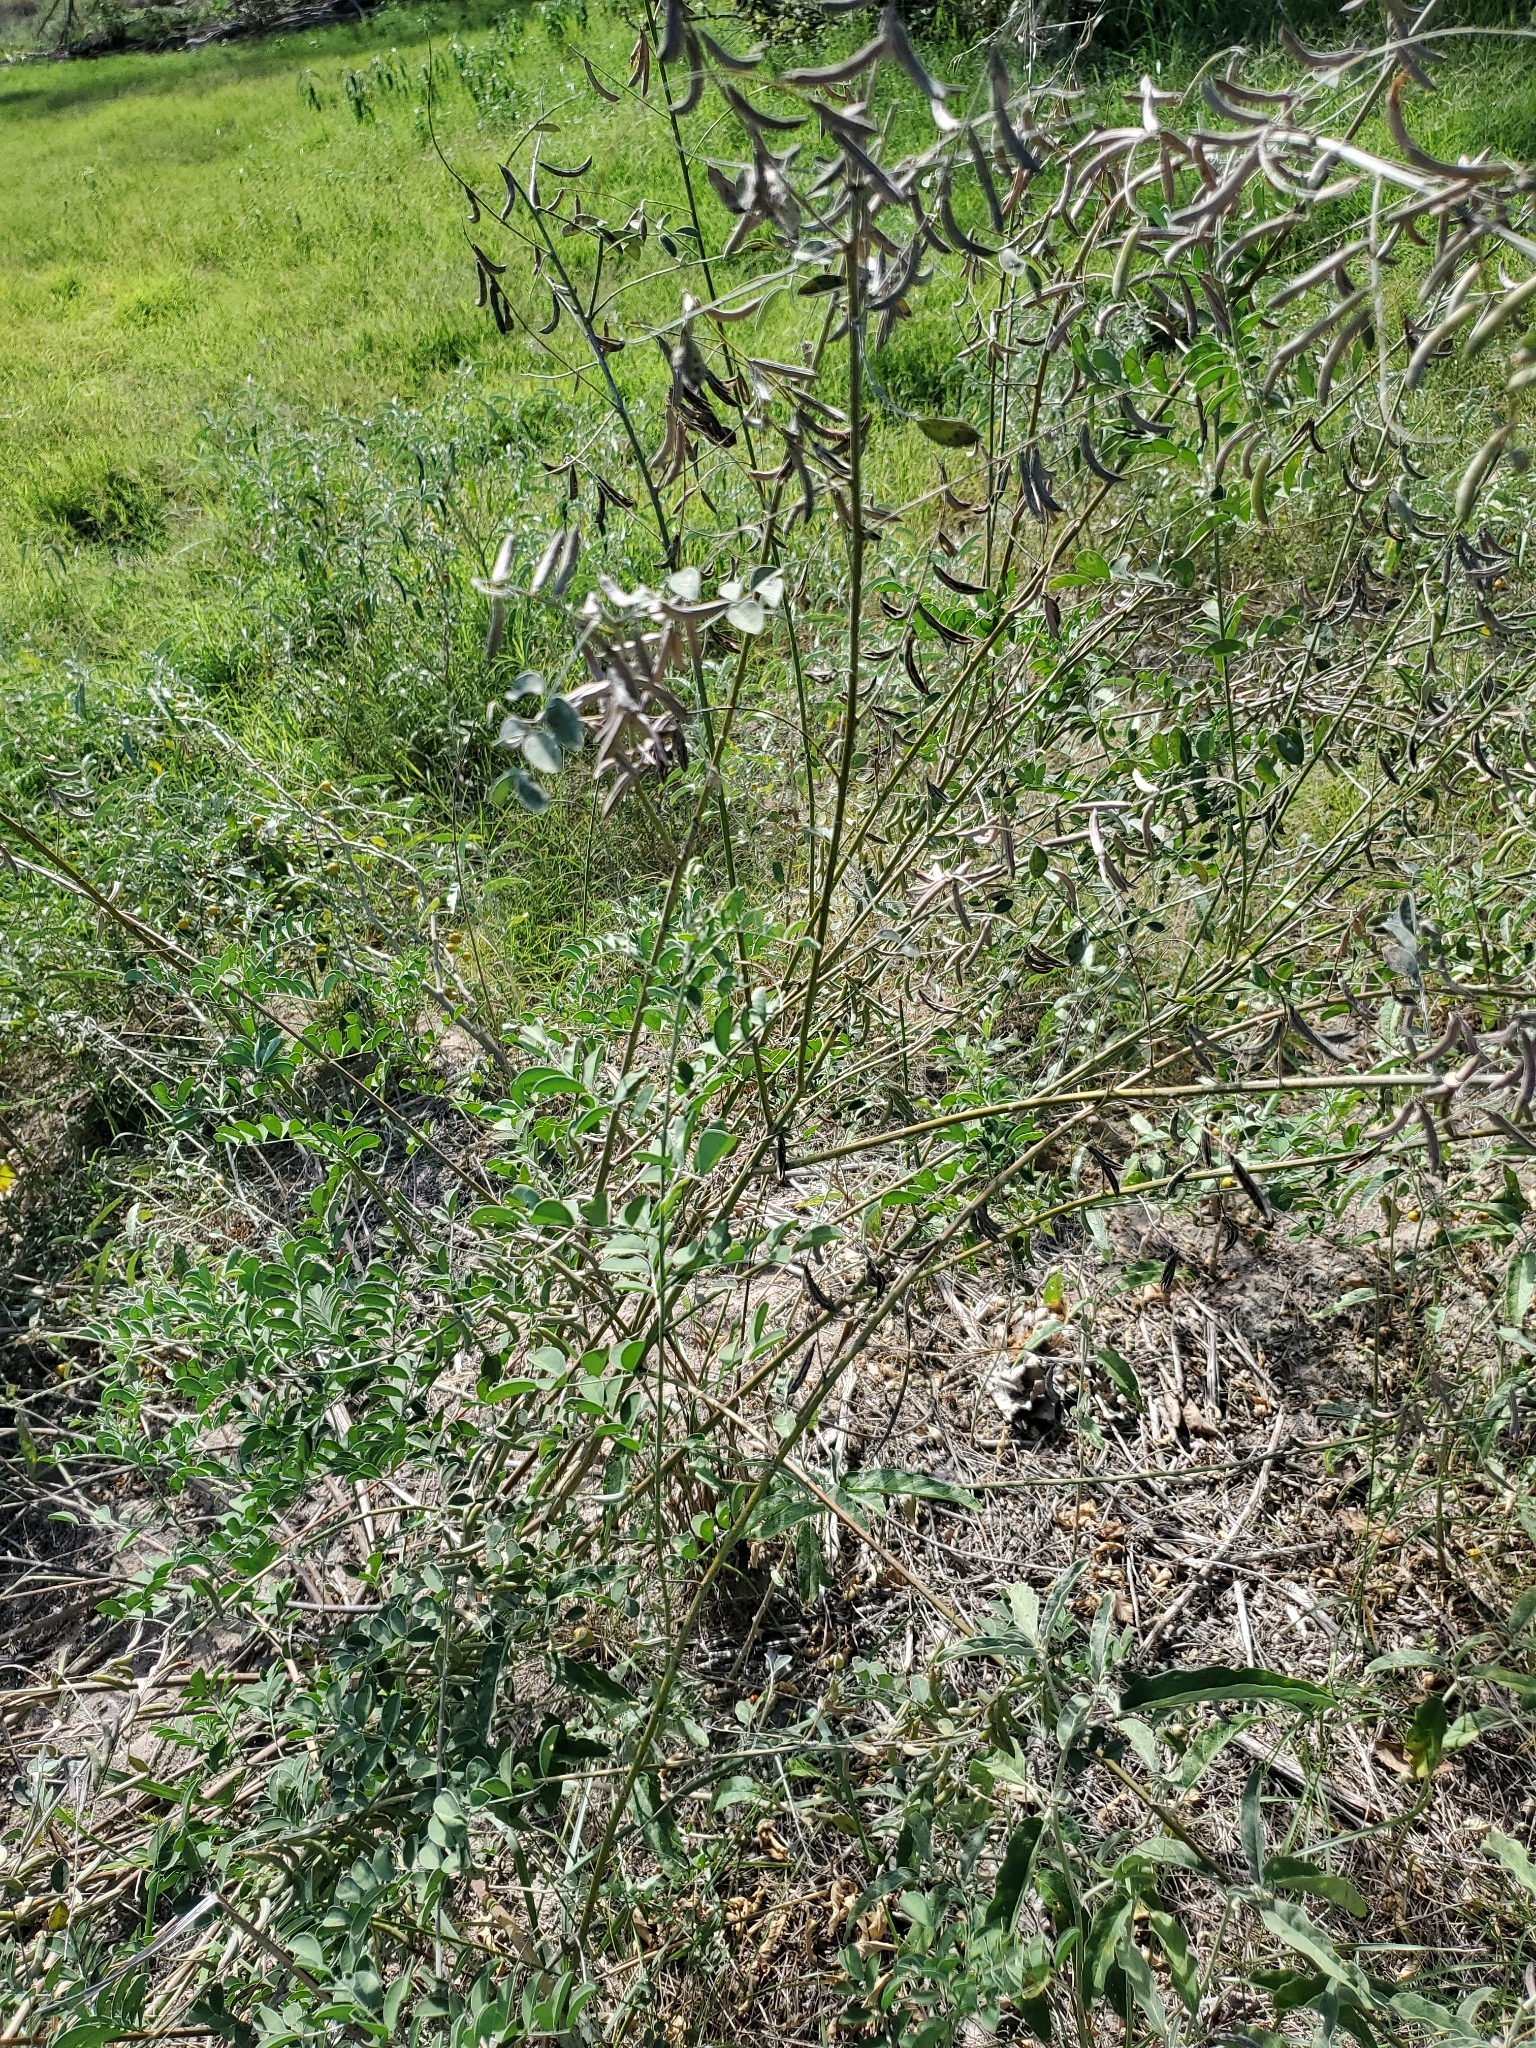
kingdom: Plantae
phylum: Tracheophyta
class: Magnoliopsida
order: Fabales
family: Fabaceae
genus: Indigofera
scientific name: Indigofera lindheimeriana
